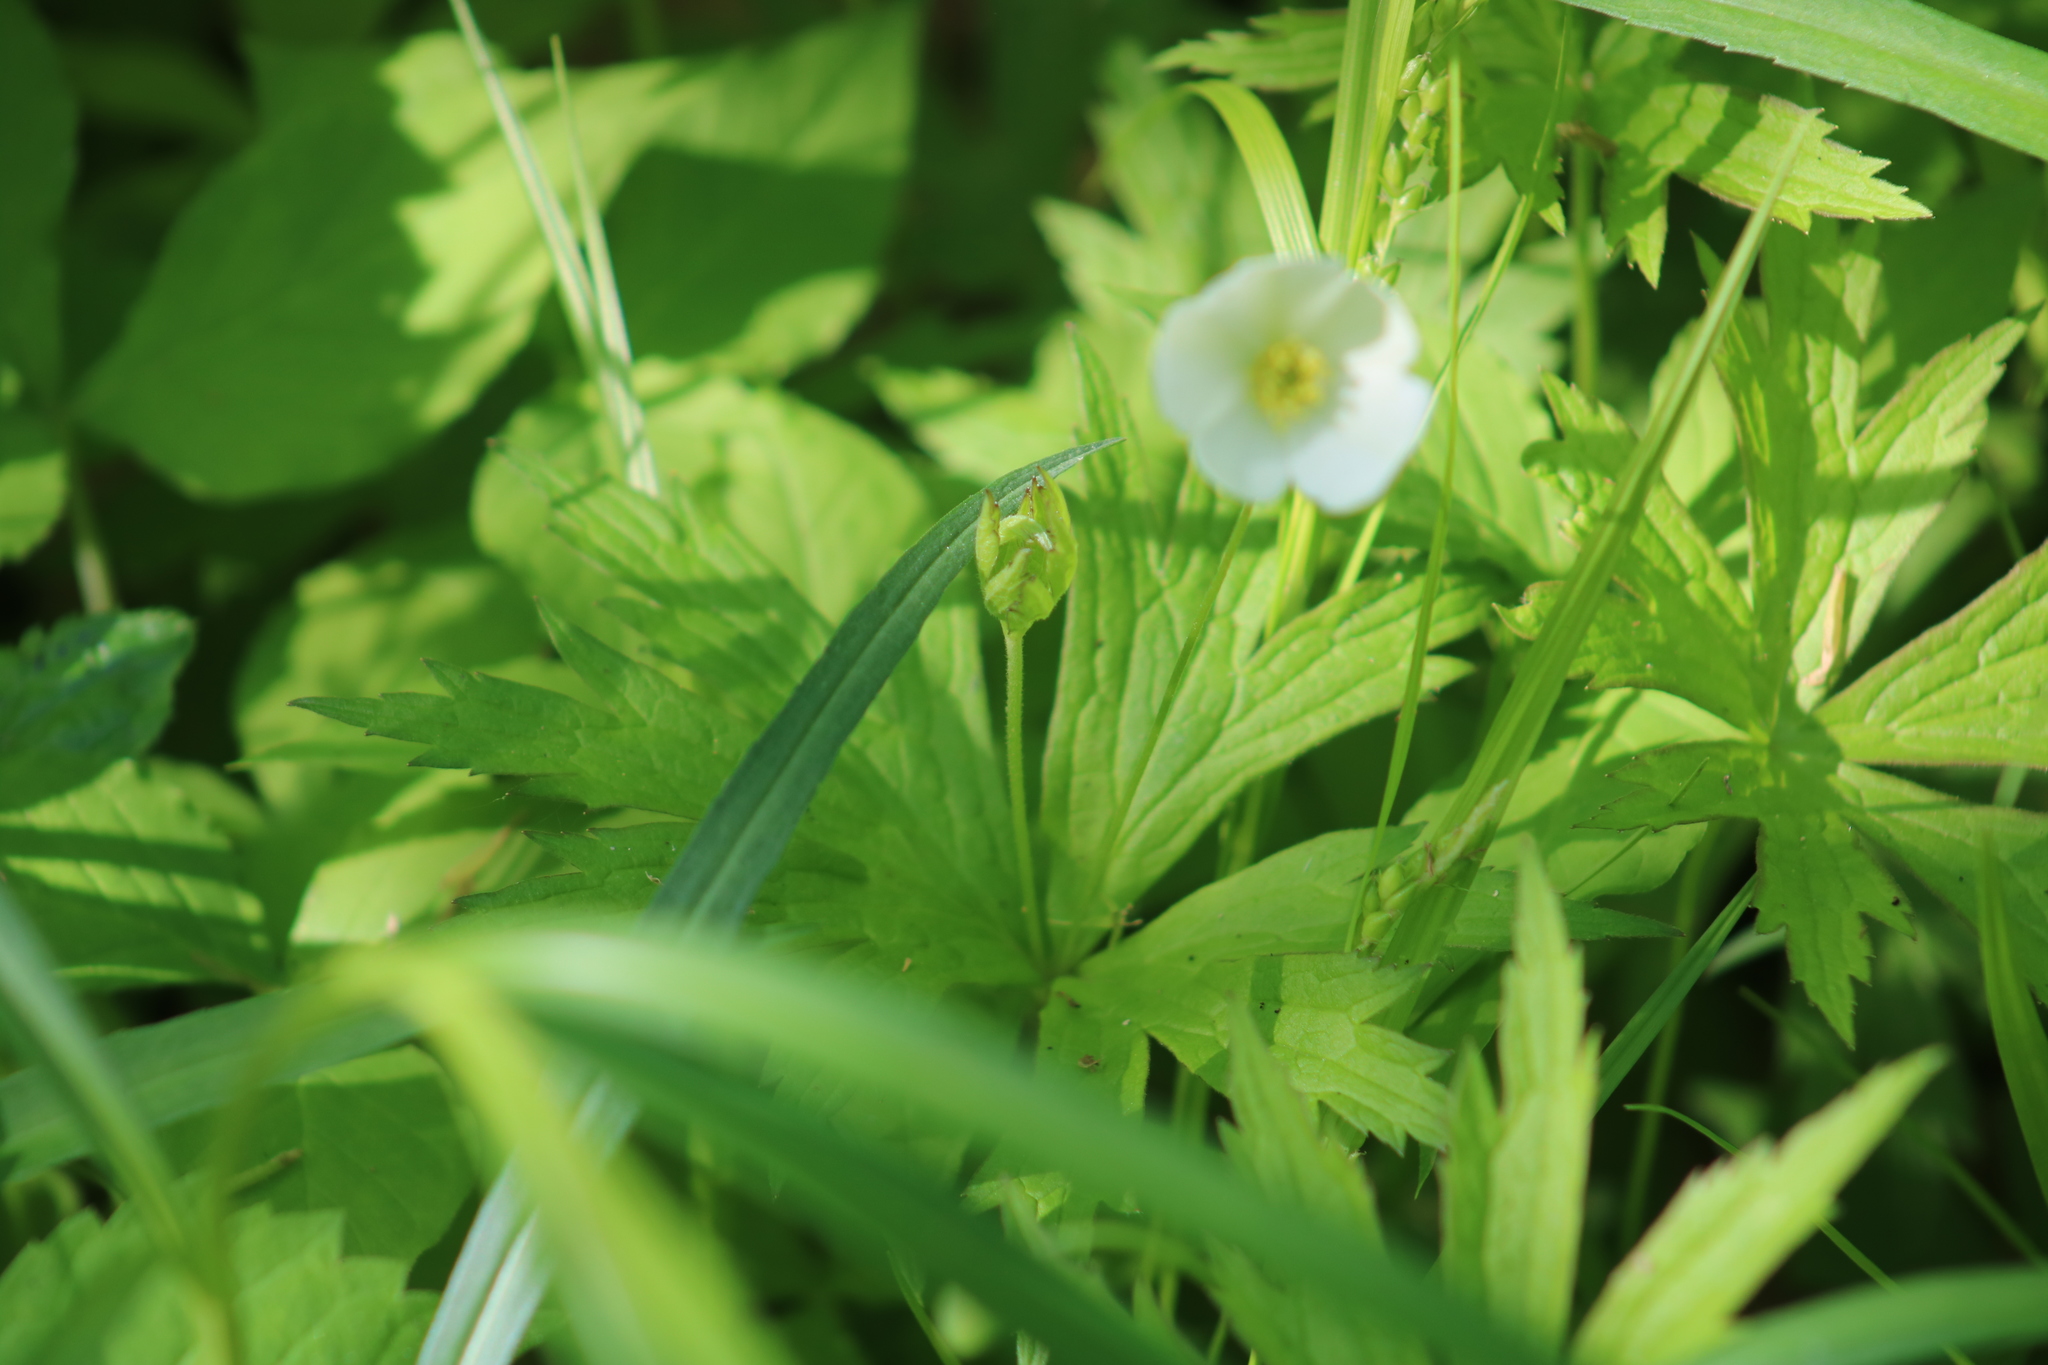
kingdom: Plantae
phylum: Tracheophyta
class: Magnoliopsida
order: Ranunculales
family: Ranunculaceae
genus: Anemonastrum
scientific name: Anemonastrum canadense
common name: Canada anemone
